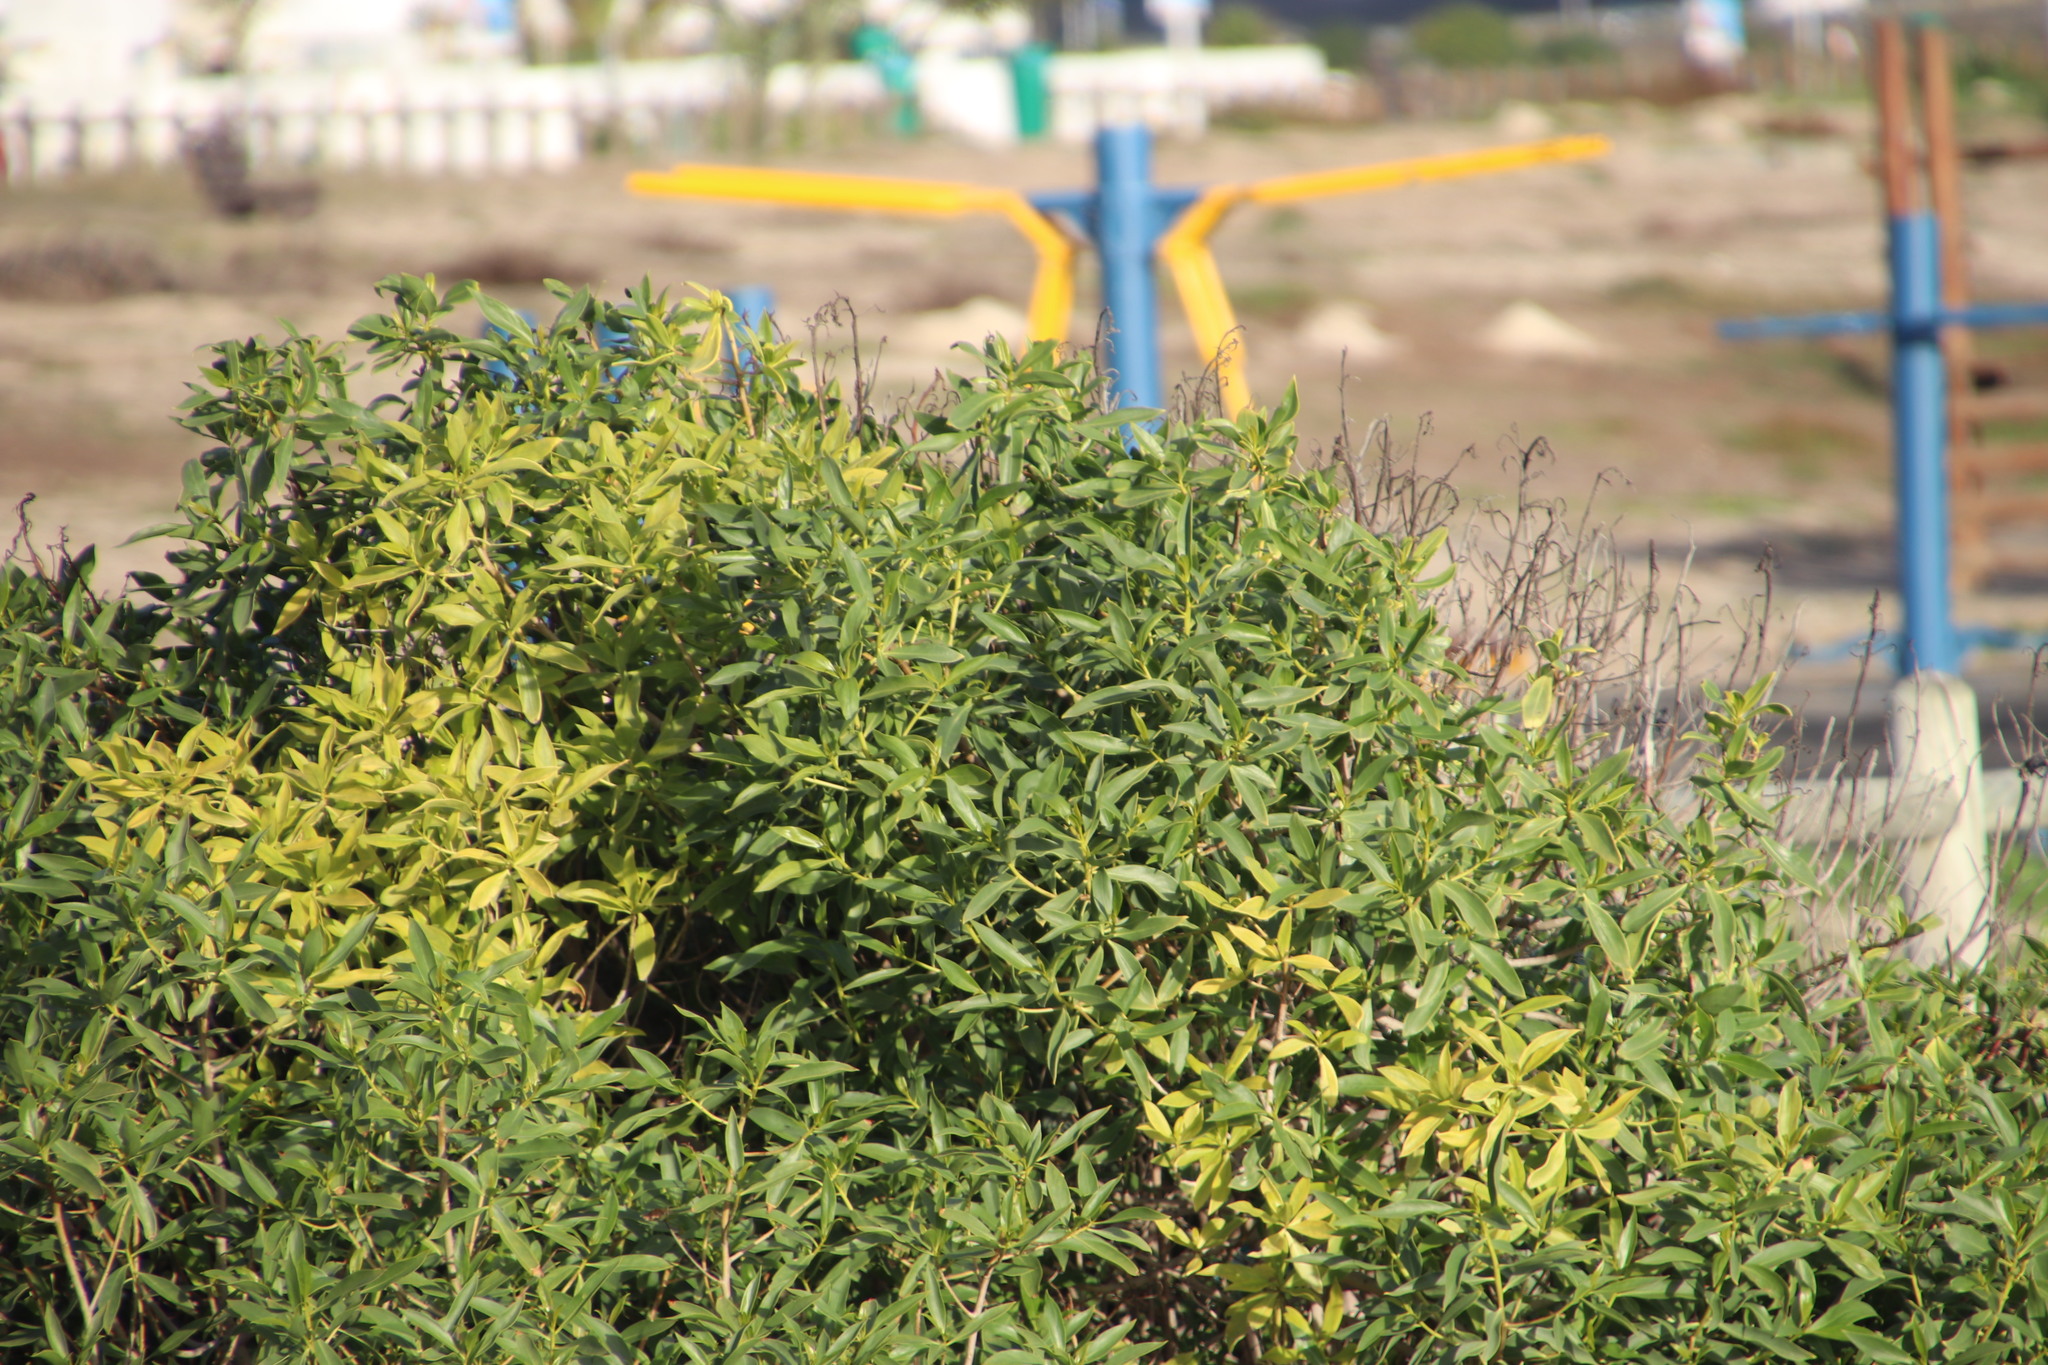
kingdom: Plantae
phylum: Tracheophyta
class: Magnoliopsida
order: Lamiales
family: Scrophulariaceae
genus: Myoporum
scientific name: Myoporum insulare
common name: Common boobialla
